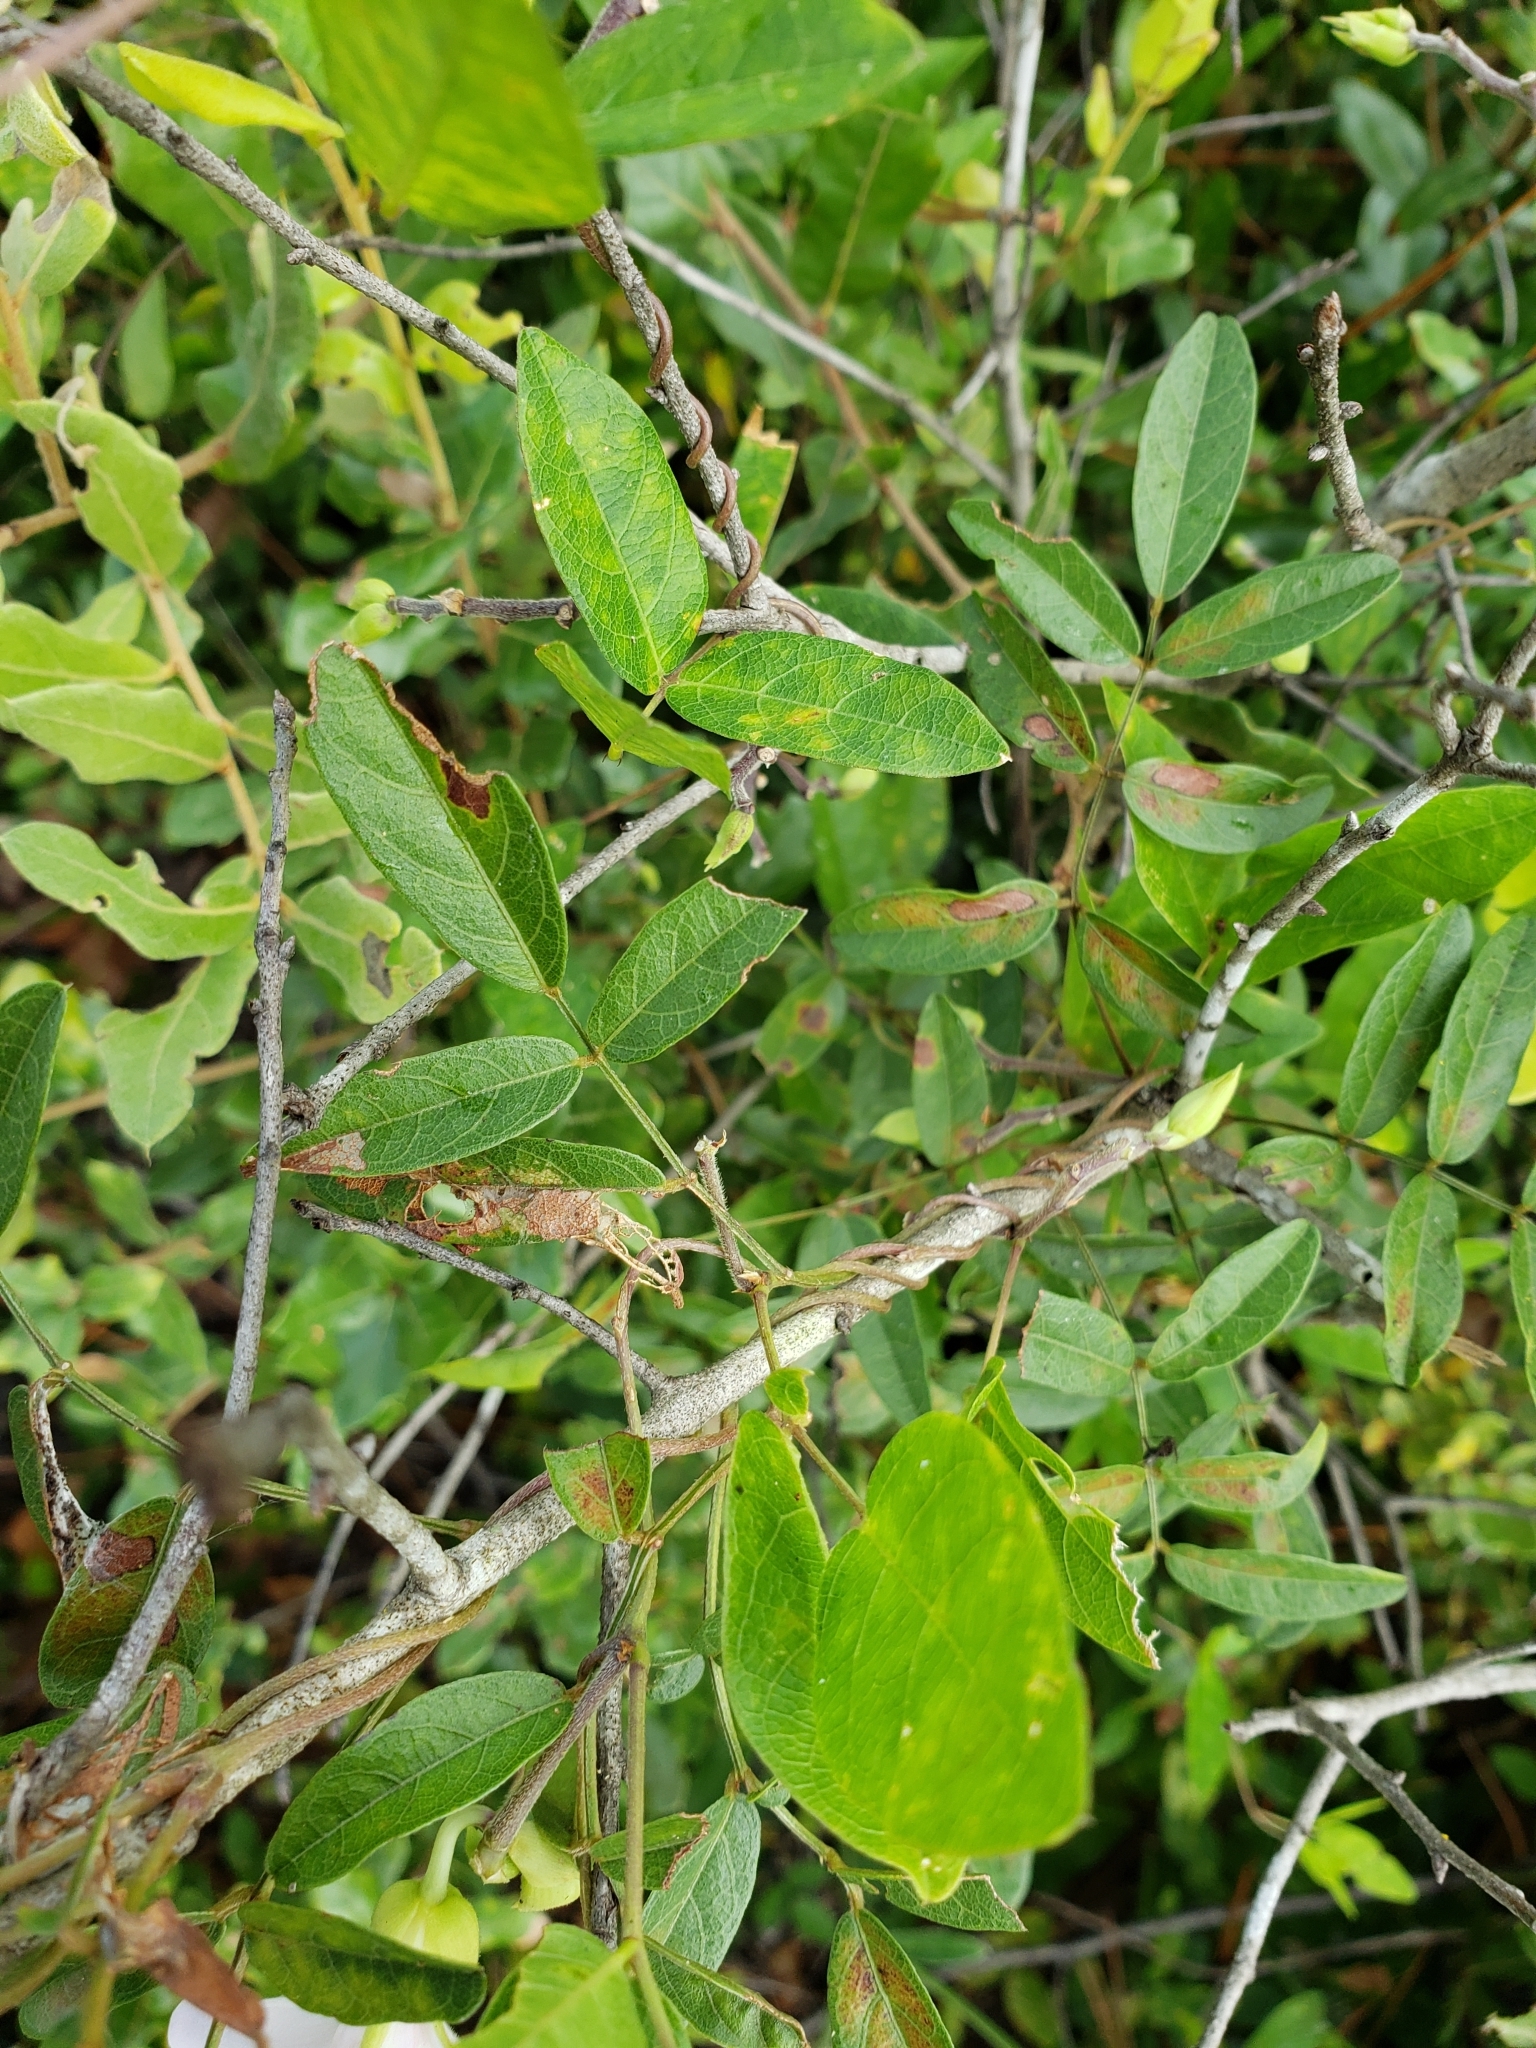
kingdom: Plantae
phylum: Tracheophyta
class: Magnoliopsida
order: Fabales
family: Fabaceae
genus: Centrosema
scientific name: Centrosema arenicola
